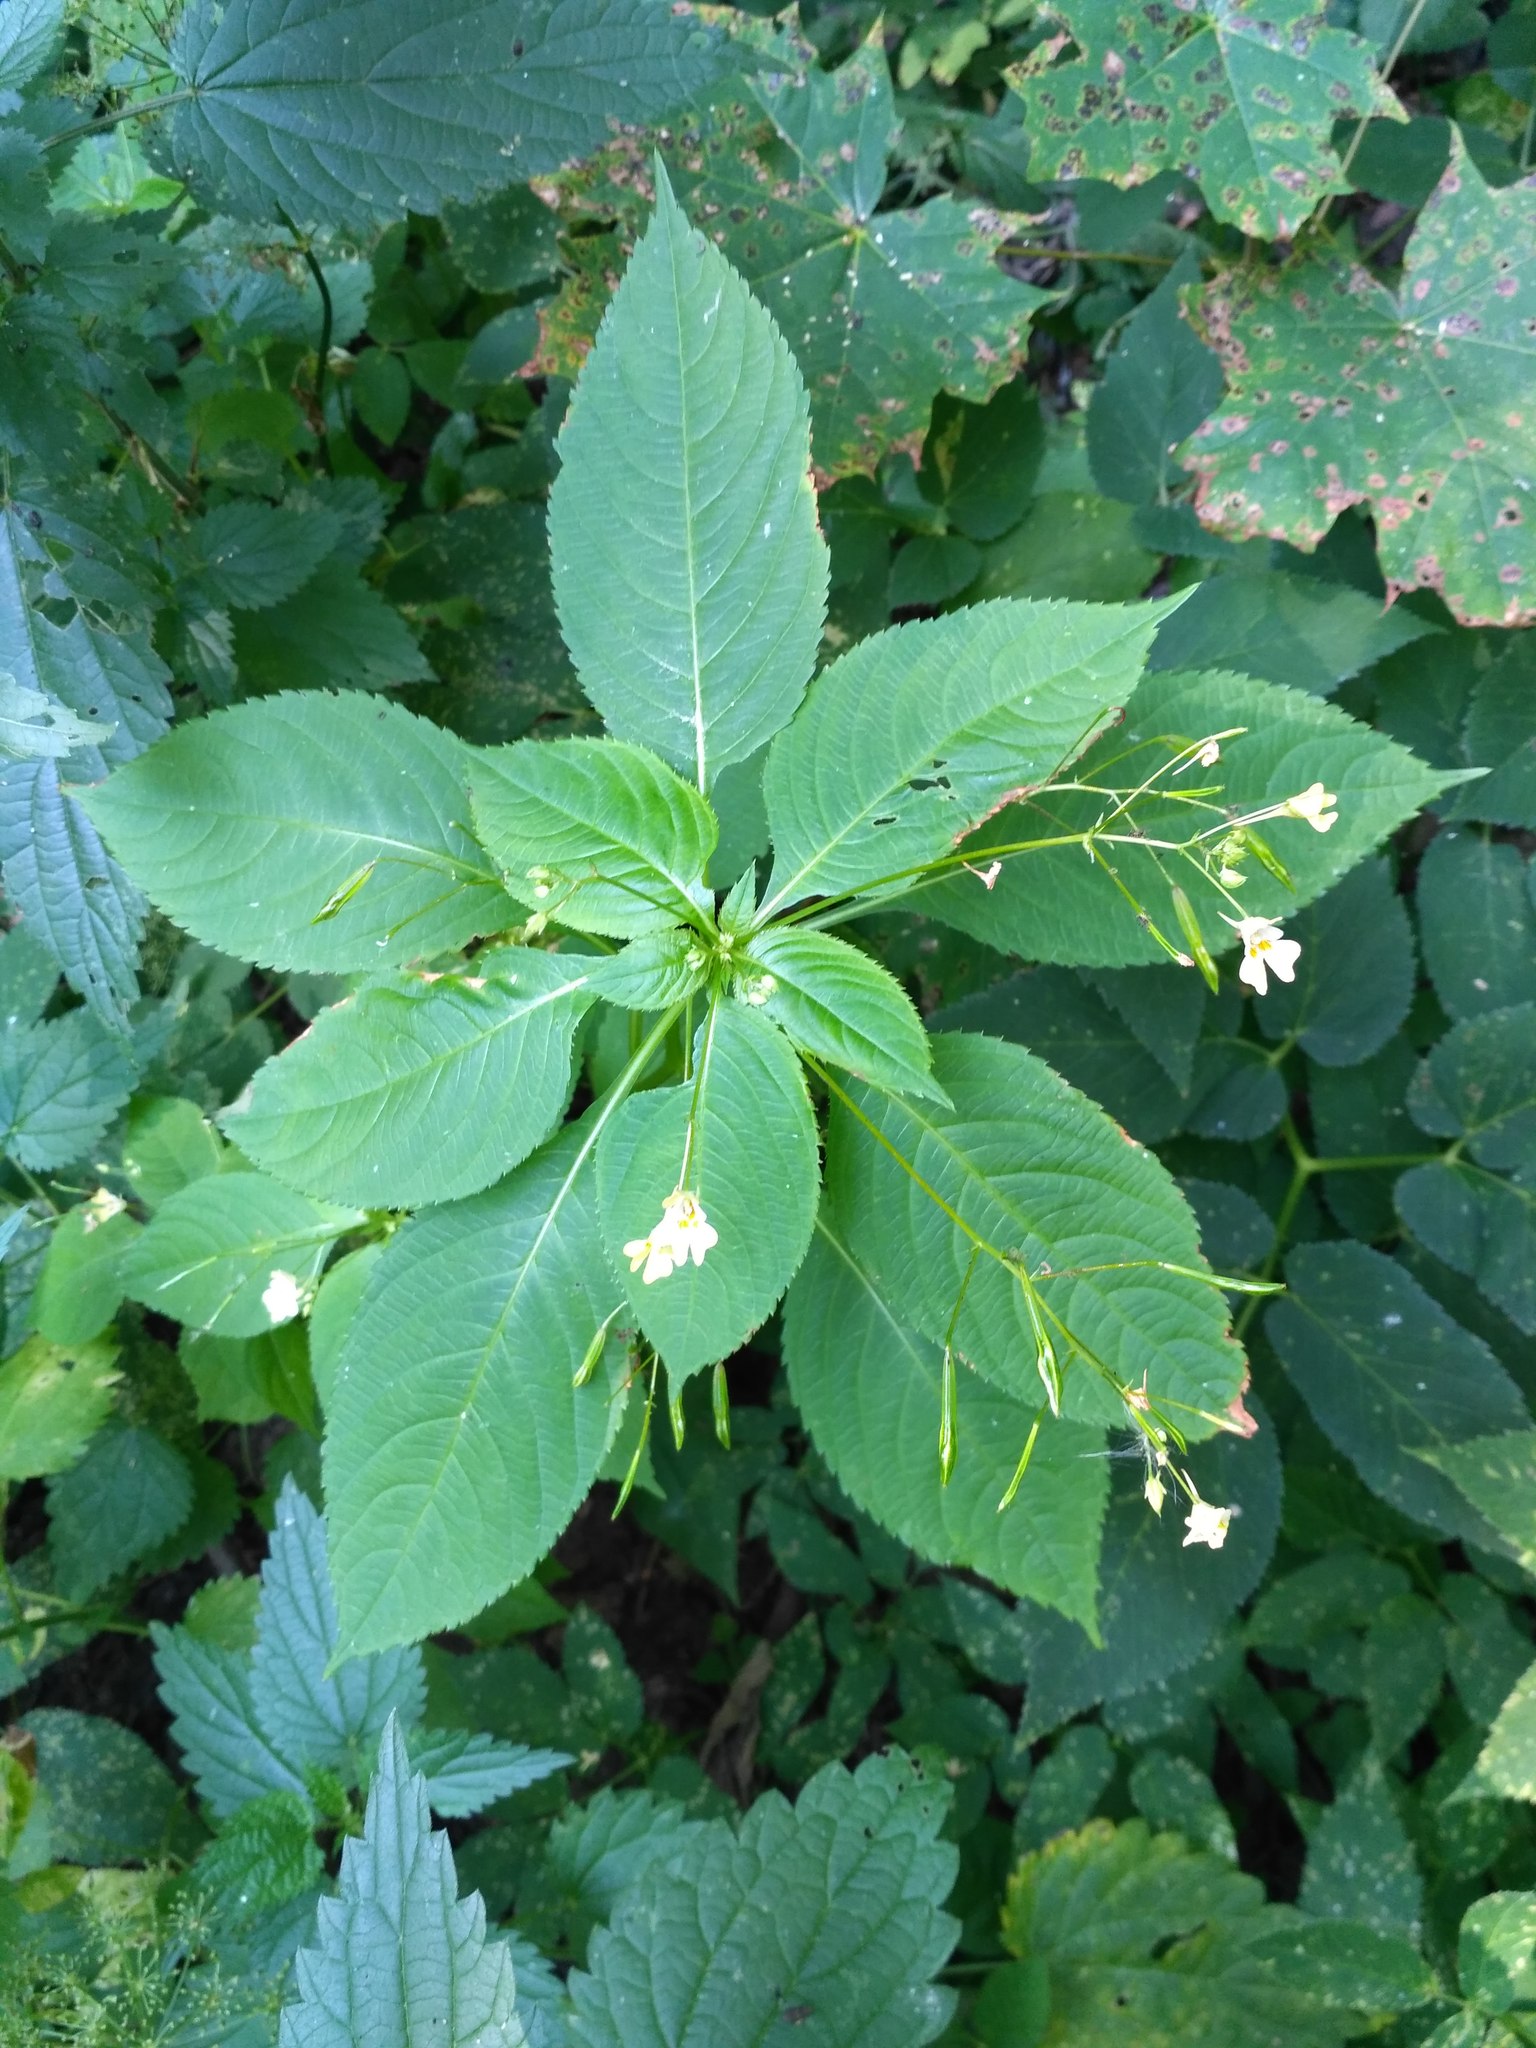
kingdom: Plantae
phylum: Tracheophyta
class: Magnoliopsida
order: Ericales
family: Balsaminaceae
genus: Impatiens
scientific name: Impatiens parviflora
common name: Small balsam
